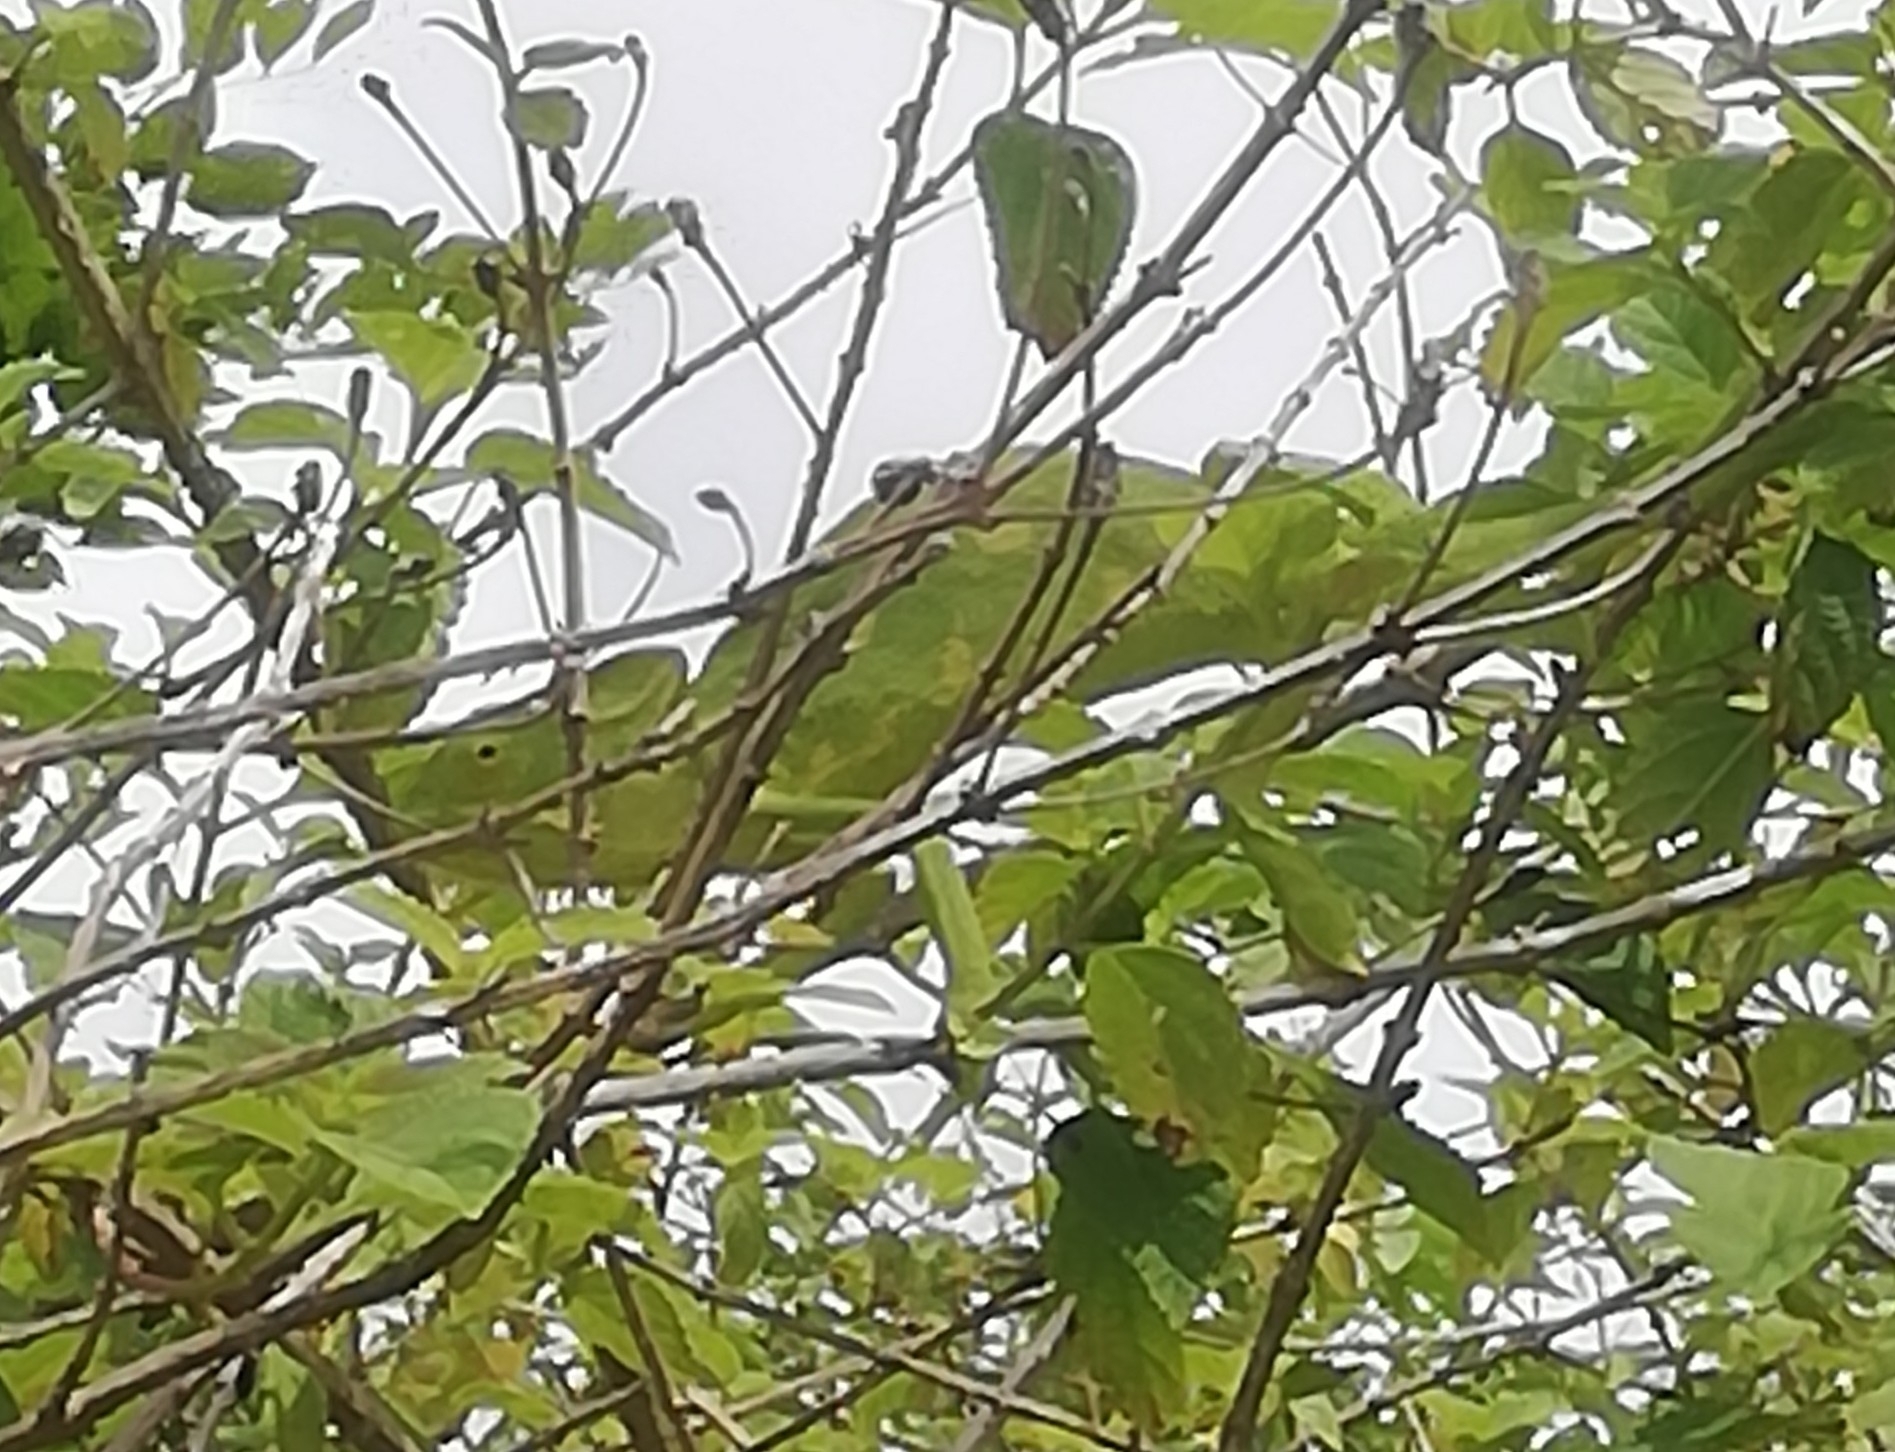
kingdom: Animalia
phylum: Chordata
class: Squamata
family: Chamaeleonidae
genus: Chamaeleo
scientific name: Chamaeleo zeylanicus
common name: Indian chameleon
